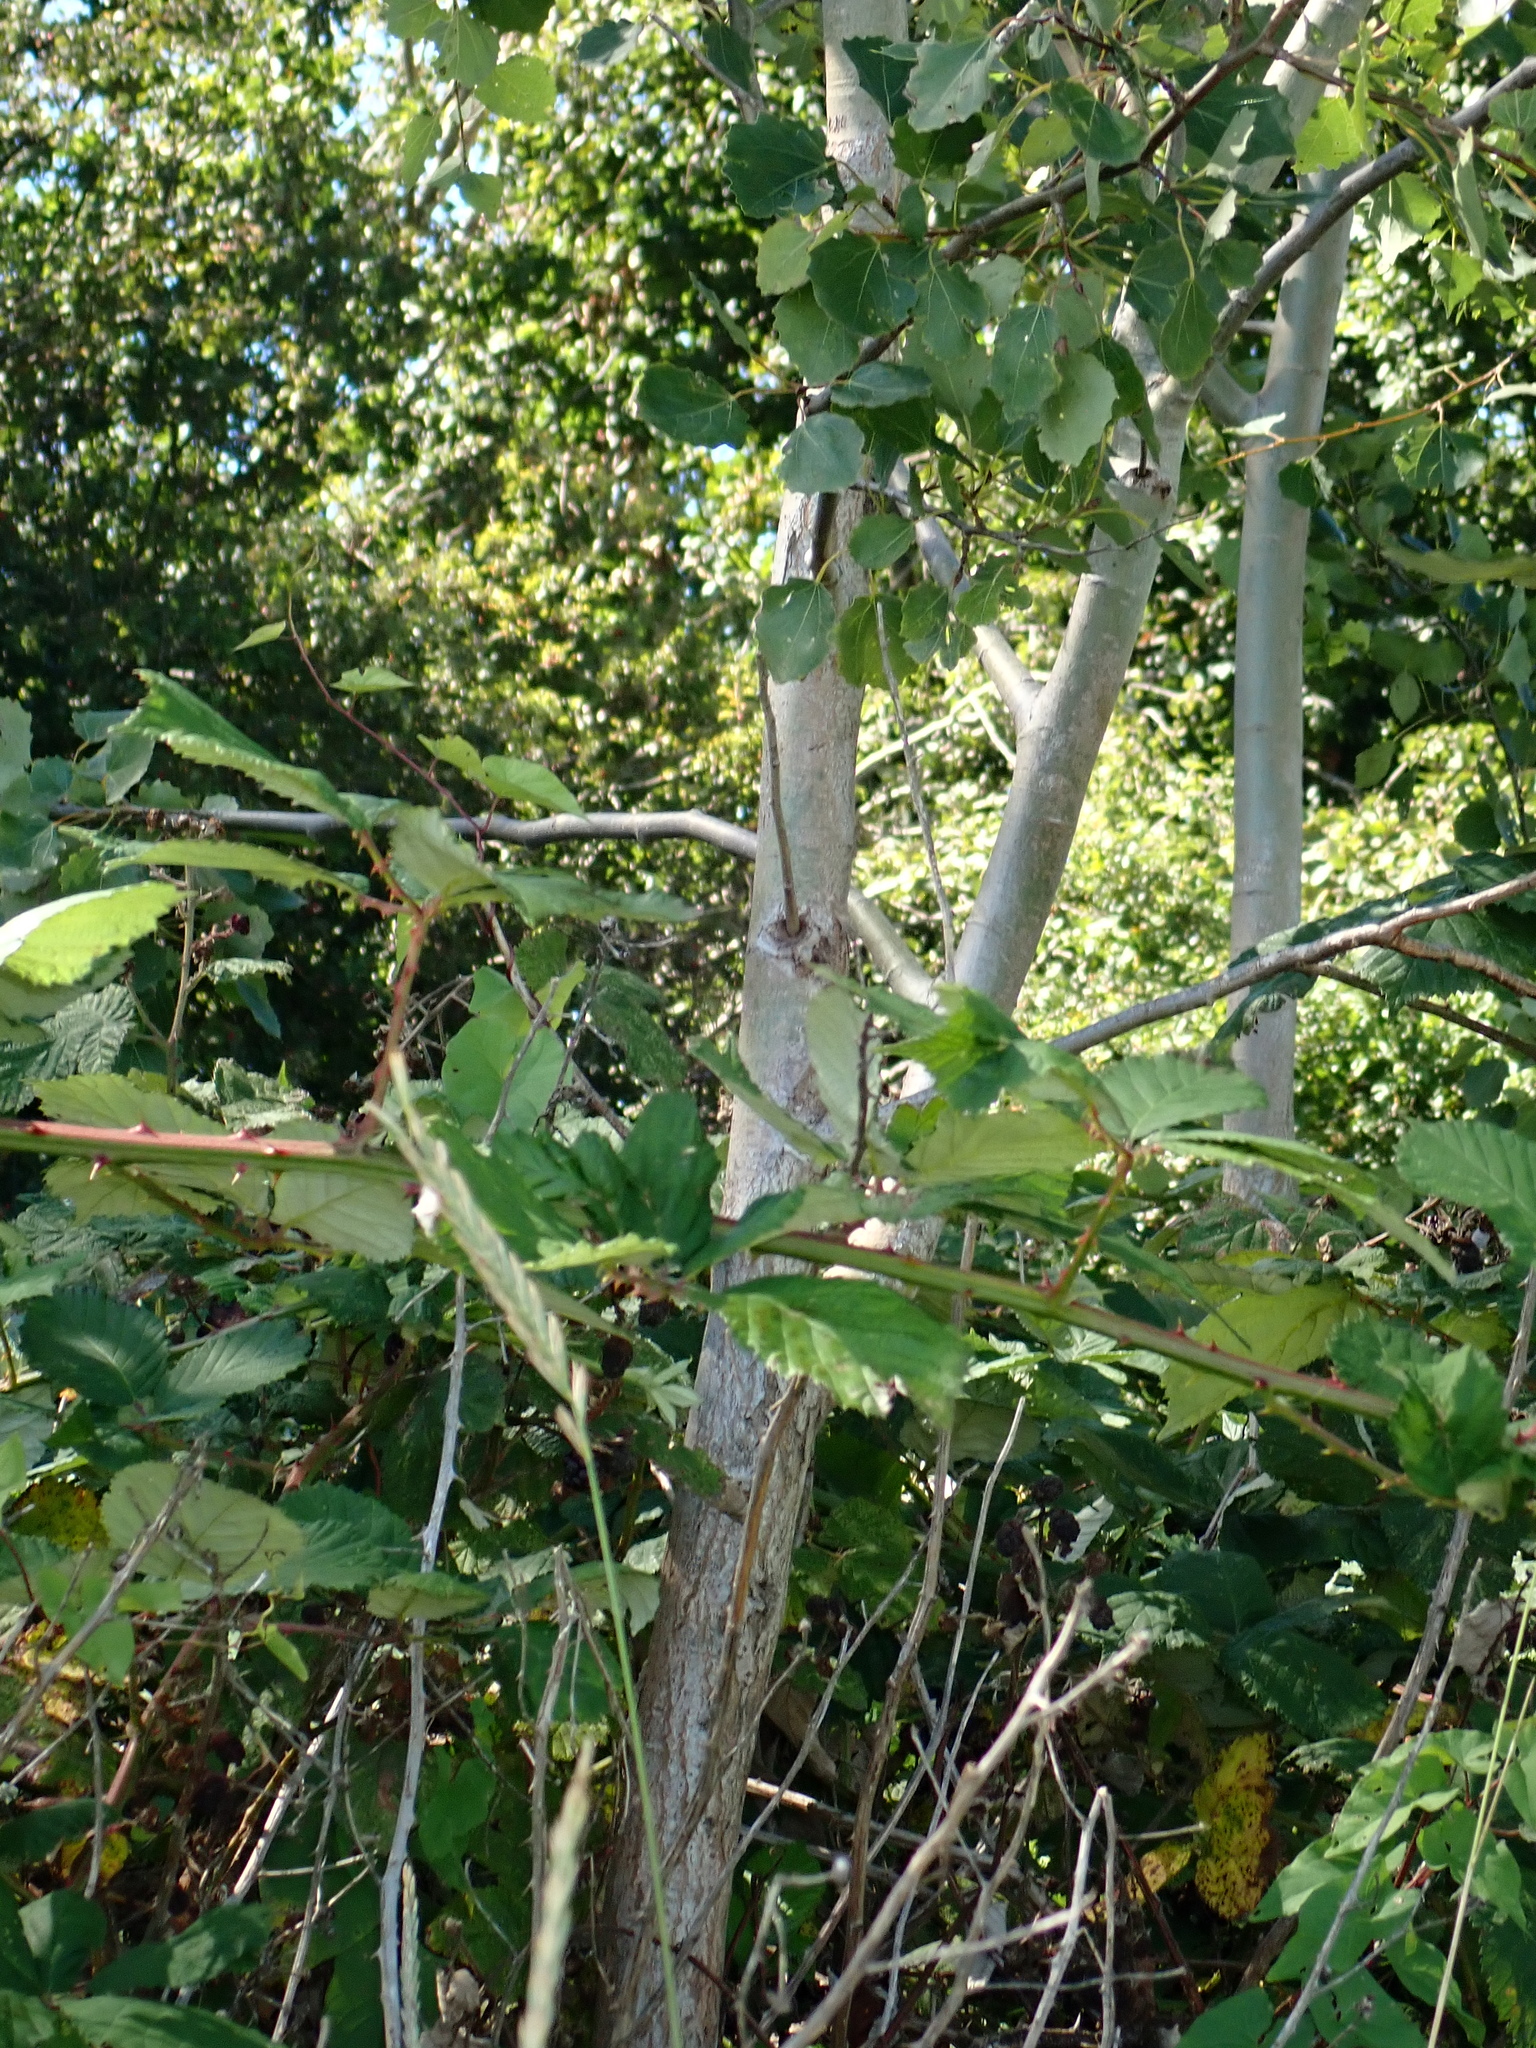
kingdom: Plantae
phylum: Tracheophyta
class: Magnoliopsida
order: Malpighiales
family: Salicaceae
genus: Populus
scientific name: Populus tremula
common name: European aspen
